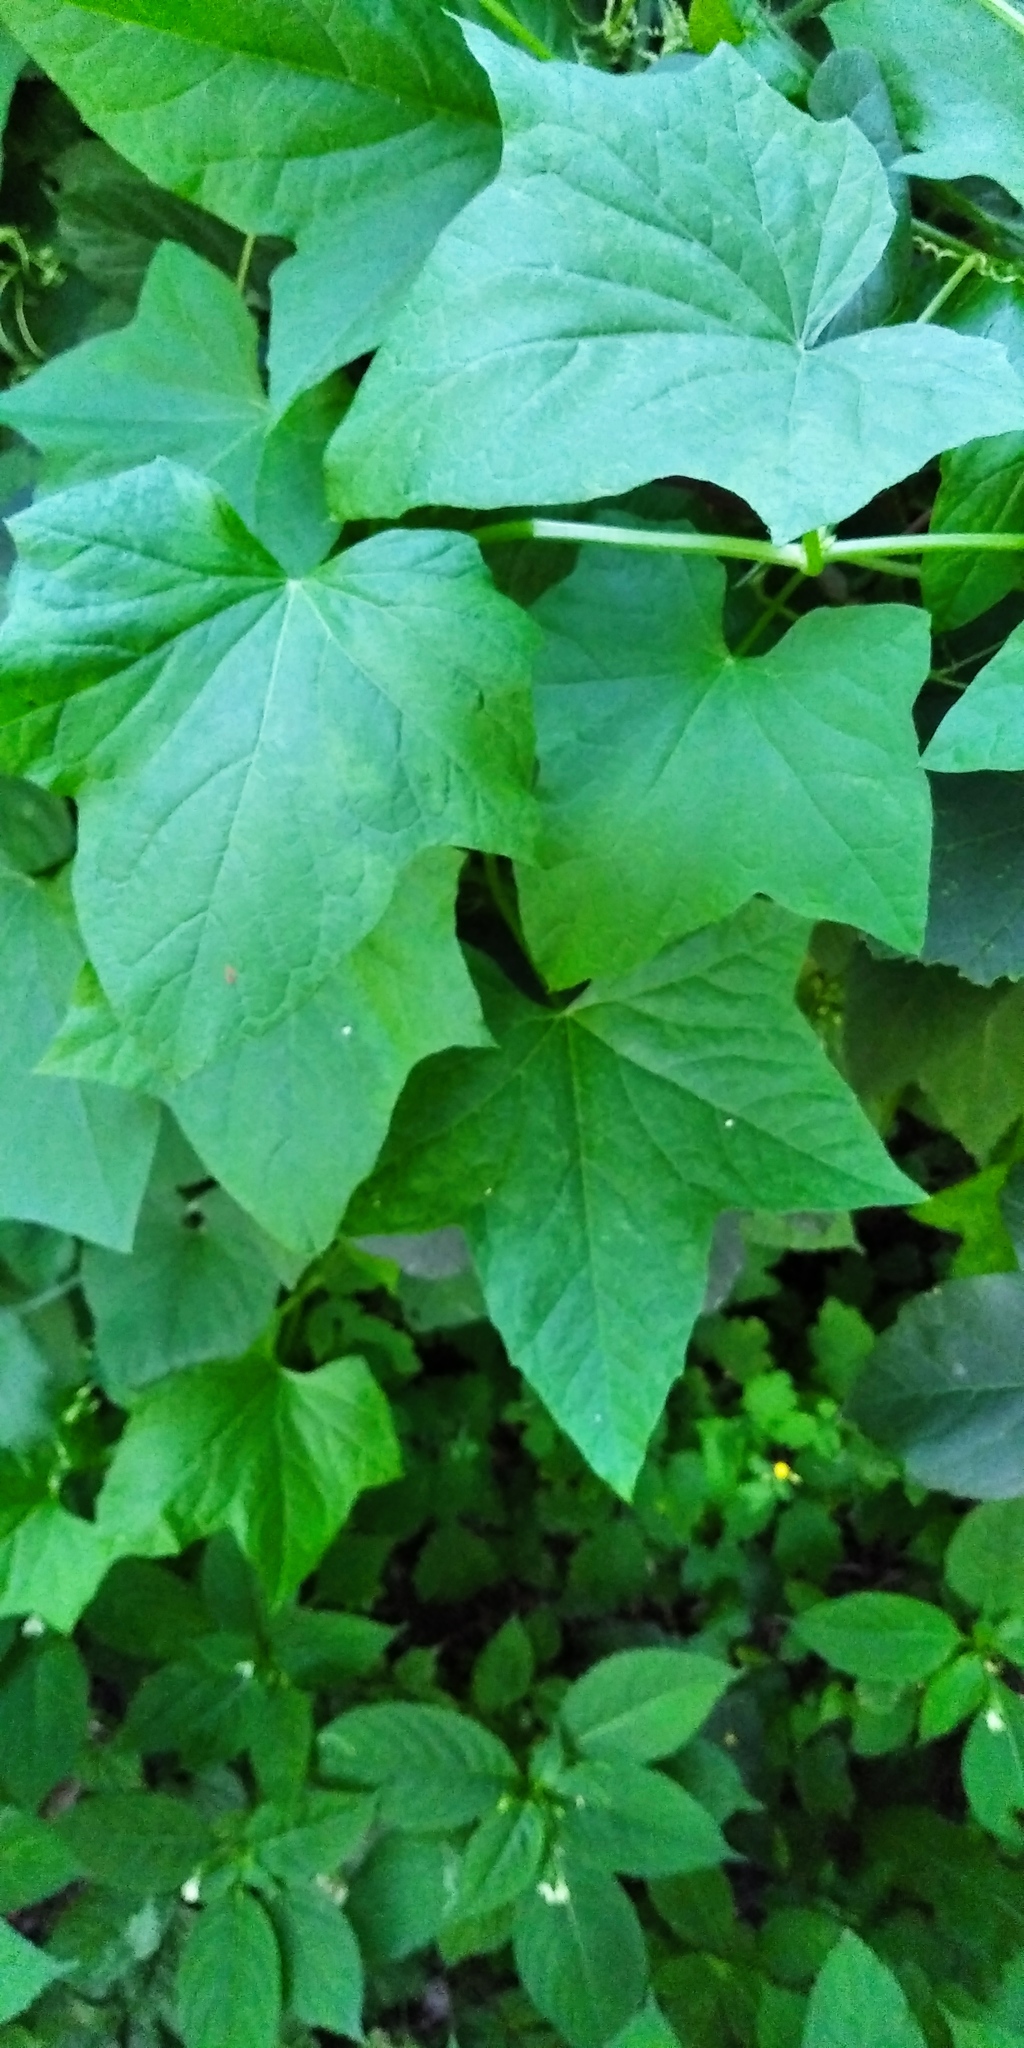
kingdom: Plantae
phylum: Tracheophyta
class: Magnoliopsida
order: Cucurbitales
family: Cucurbitaceae
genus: Echinocystis
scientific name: Echinocystis lobata
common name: Wild cucumber
